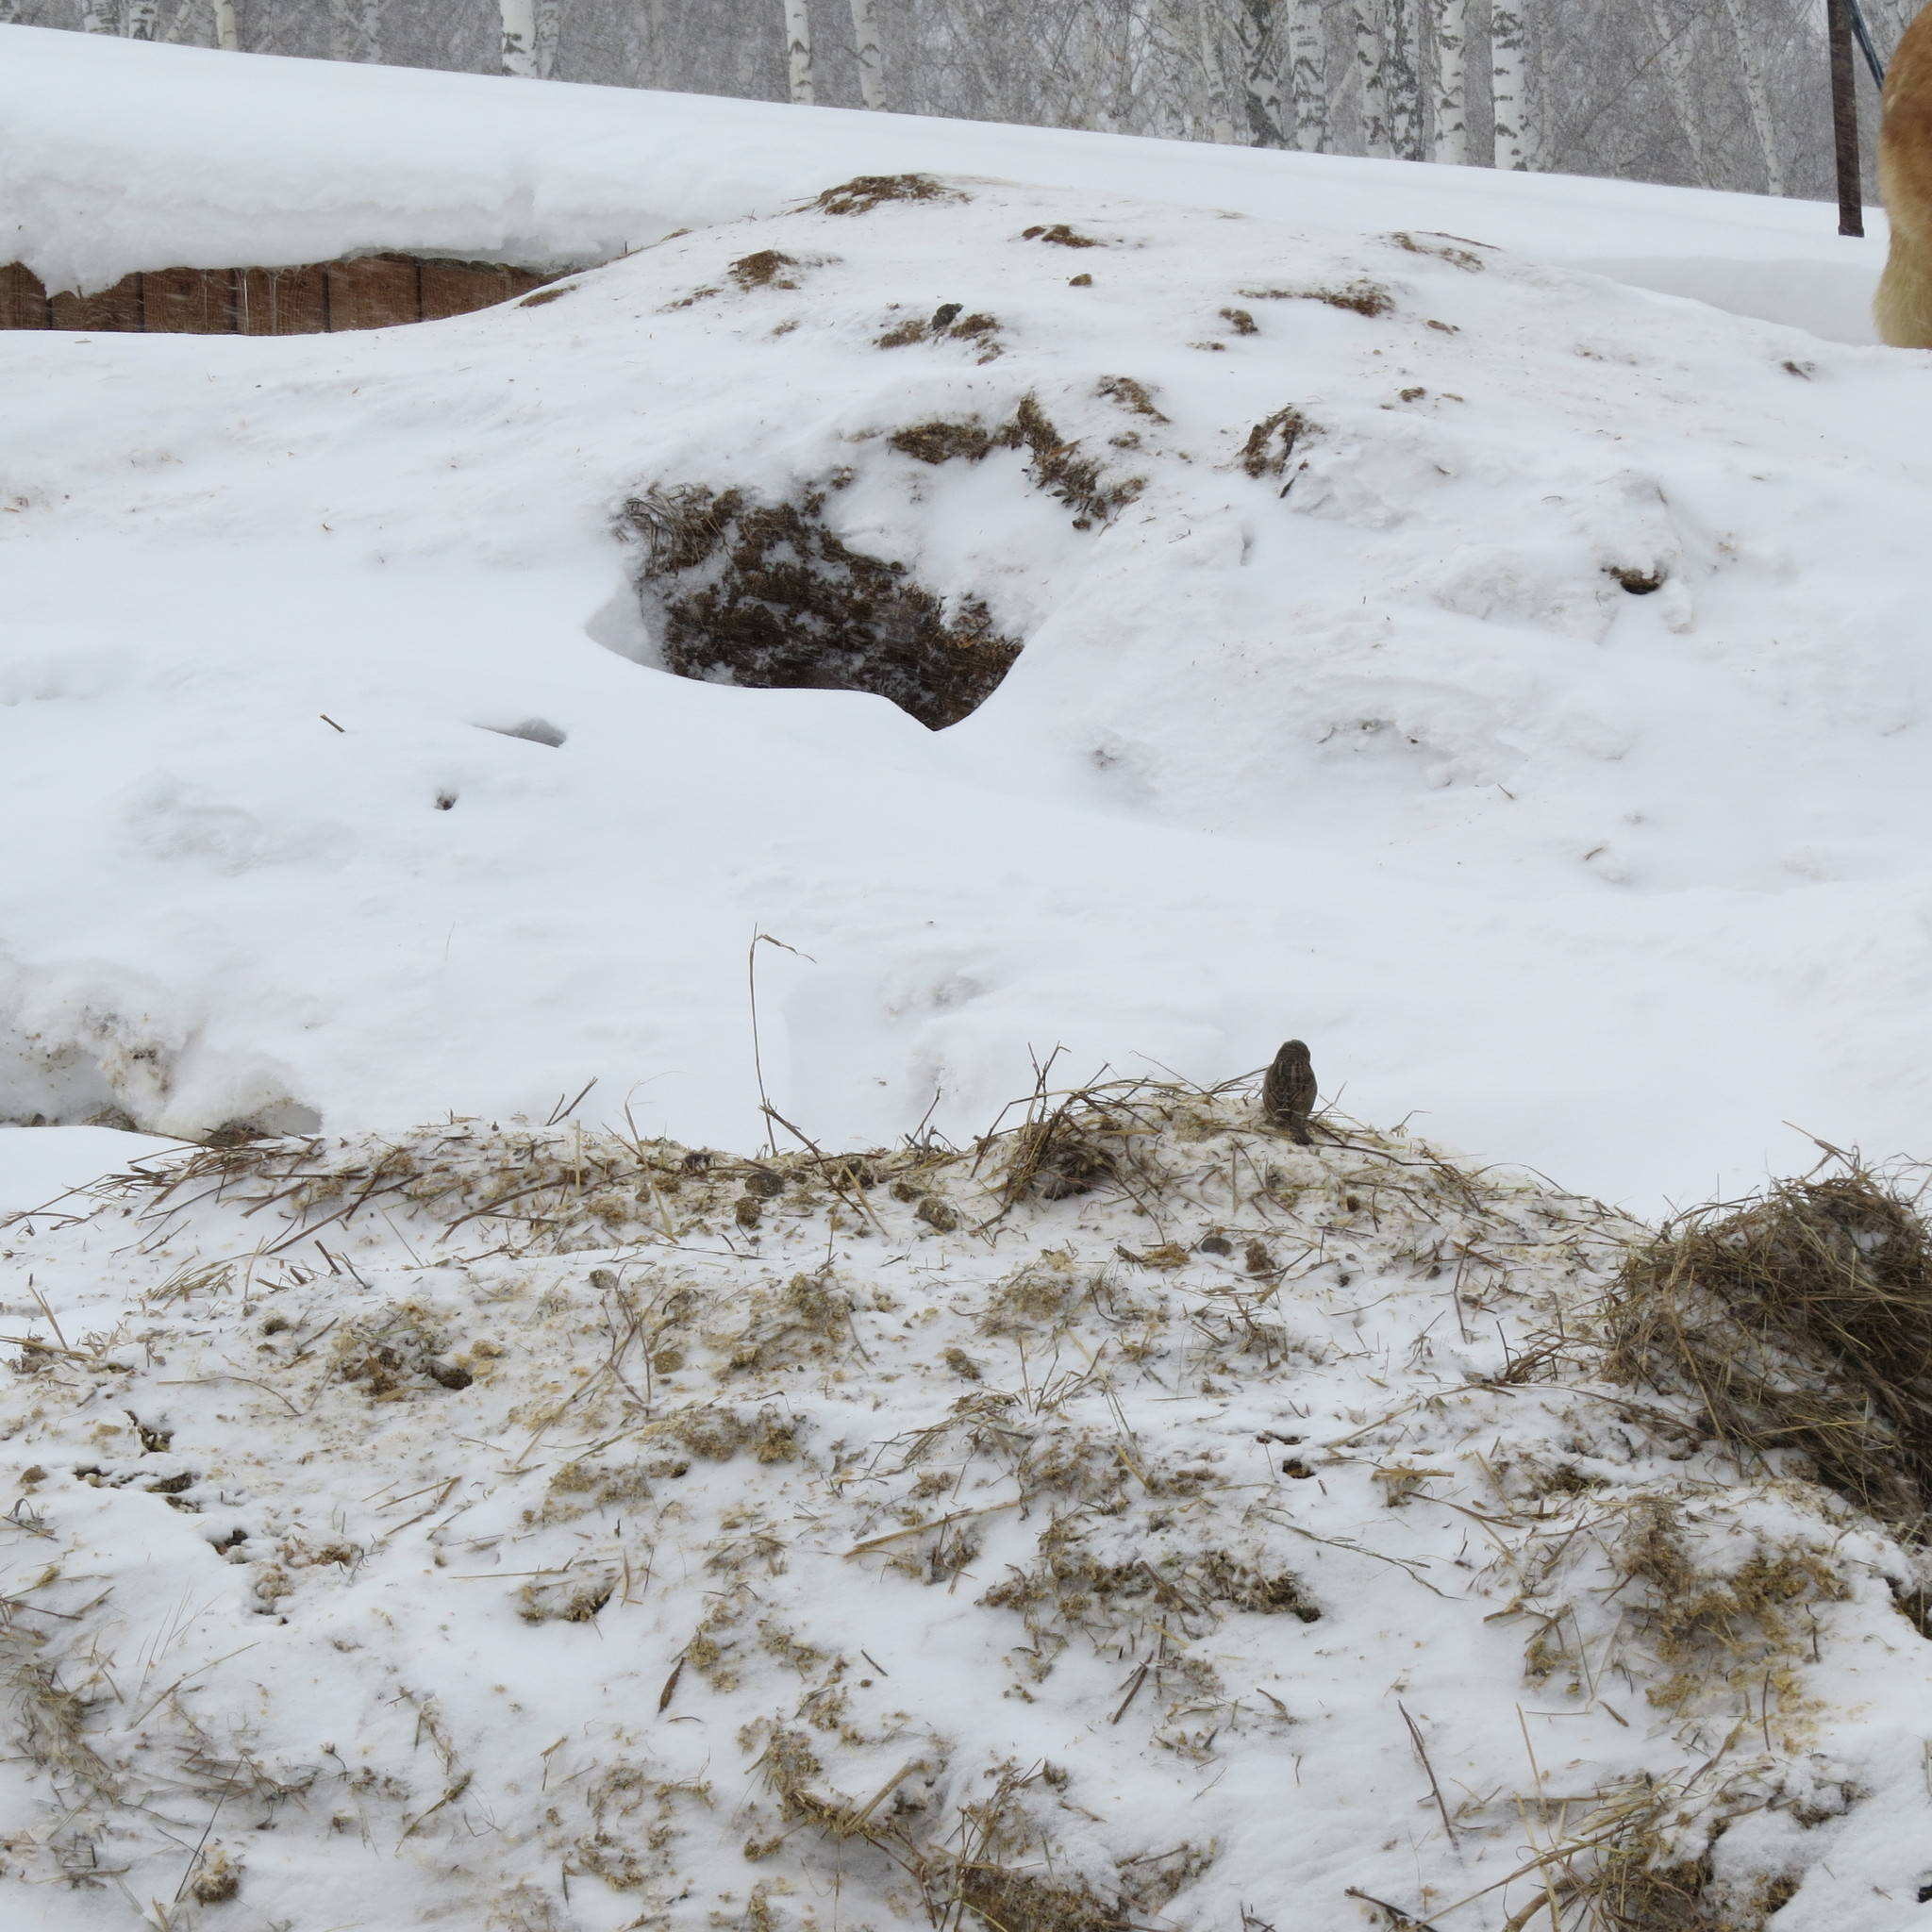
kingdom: Animalia
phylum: Chordata
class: Aves
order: Passeriformes
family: Passeridae
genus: Passer
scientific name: Passer domesticus
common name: House sparrow
